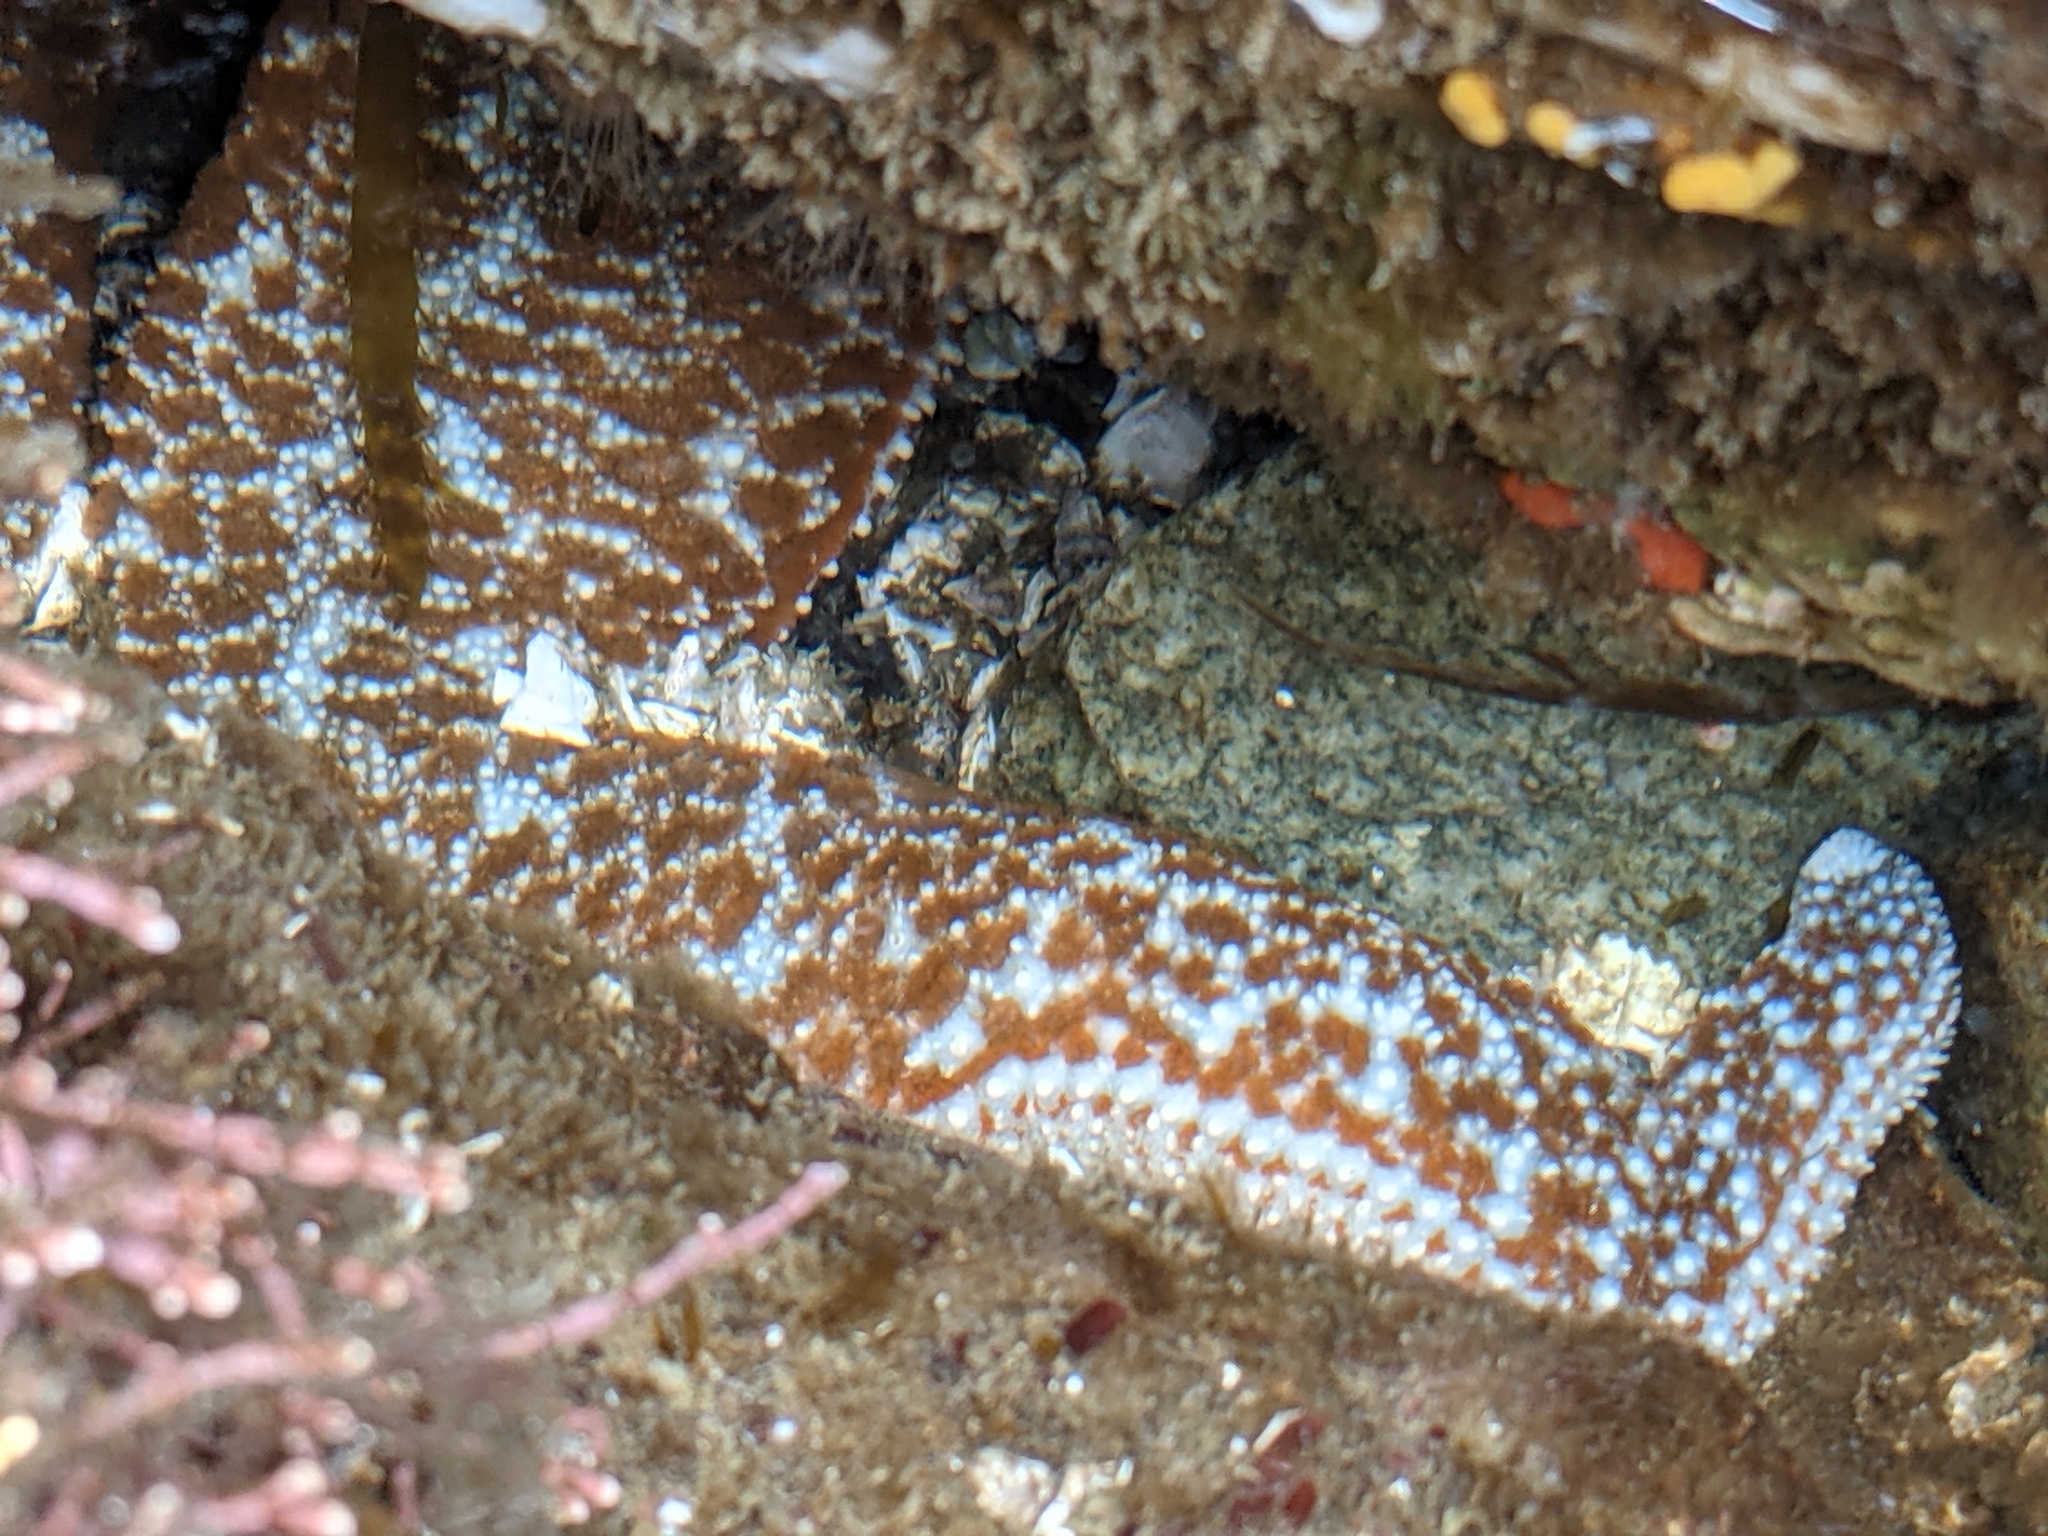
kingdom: Animalia
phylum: Echinodermata
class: Asteroidea
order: Forcipulatida
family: Asteriidae
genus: Evasterias
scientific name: Evasterias troschelii
